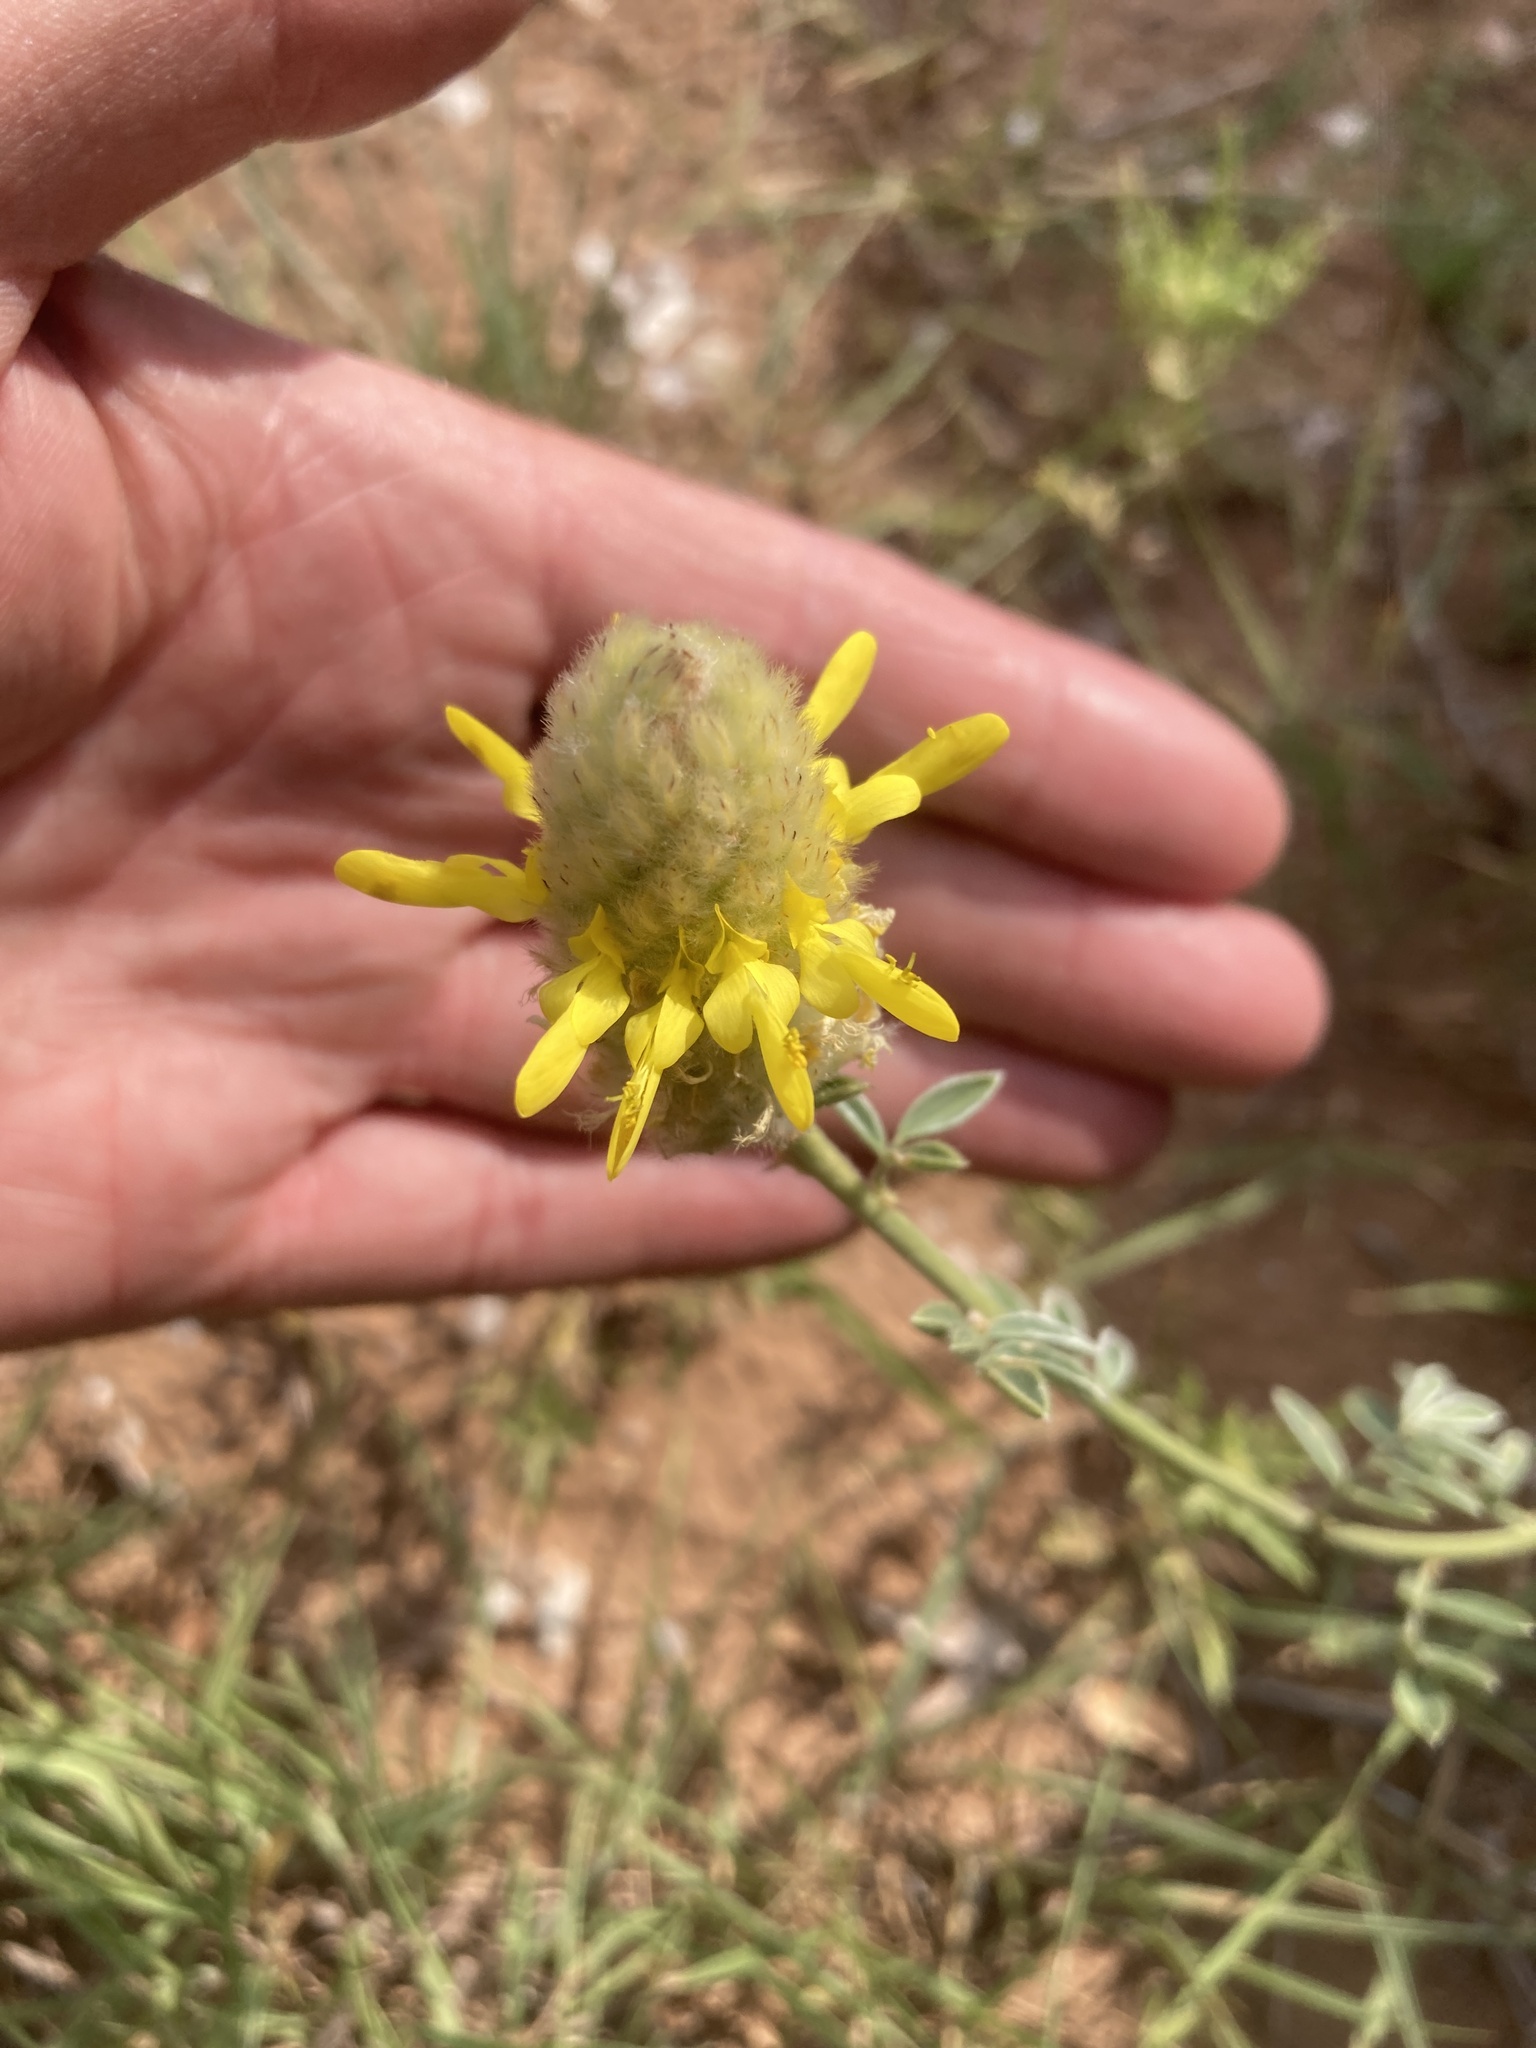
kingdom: Plantae
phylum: Tracheophyta
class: Magnoliopsida
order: Fabales
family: Fabaceae
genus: Dalea
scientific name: Dalea aurea
